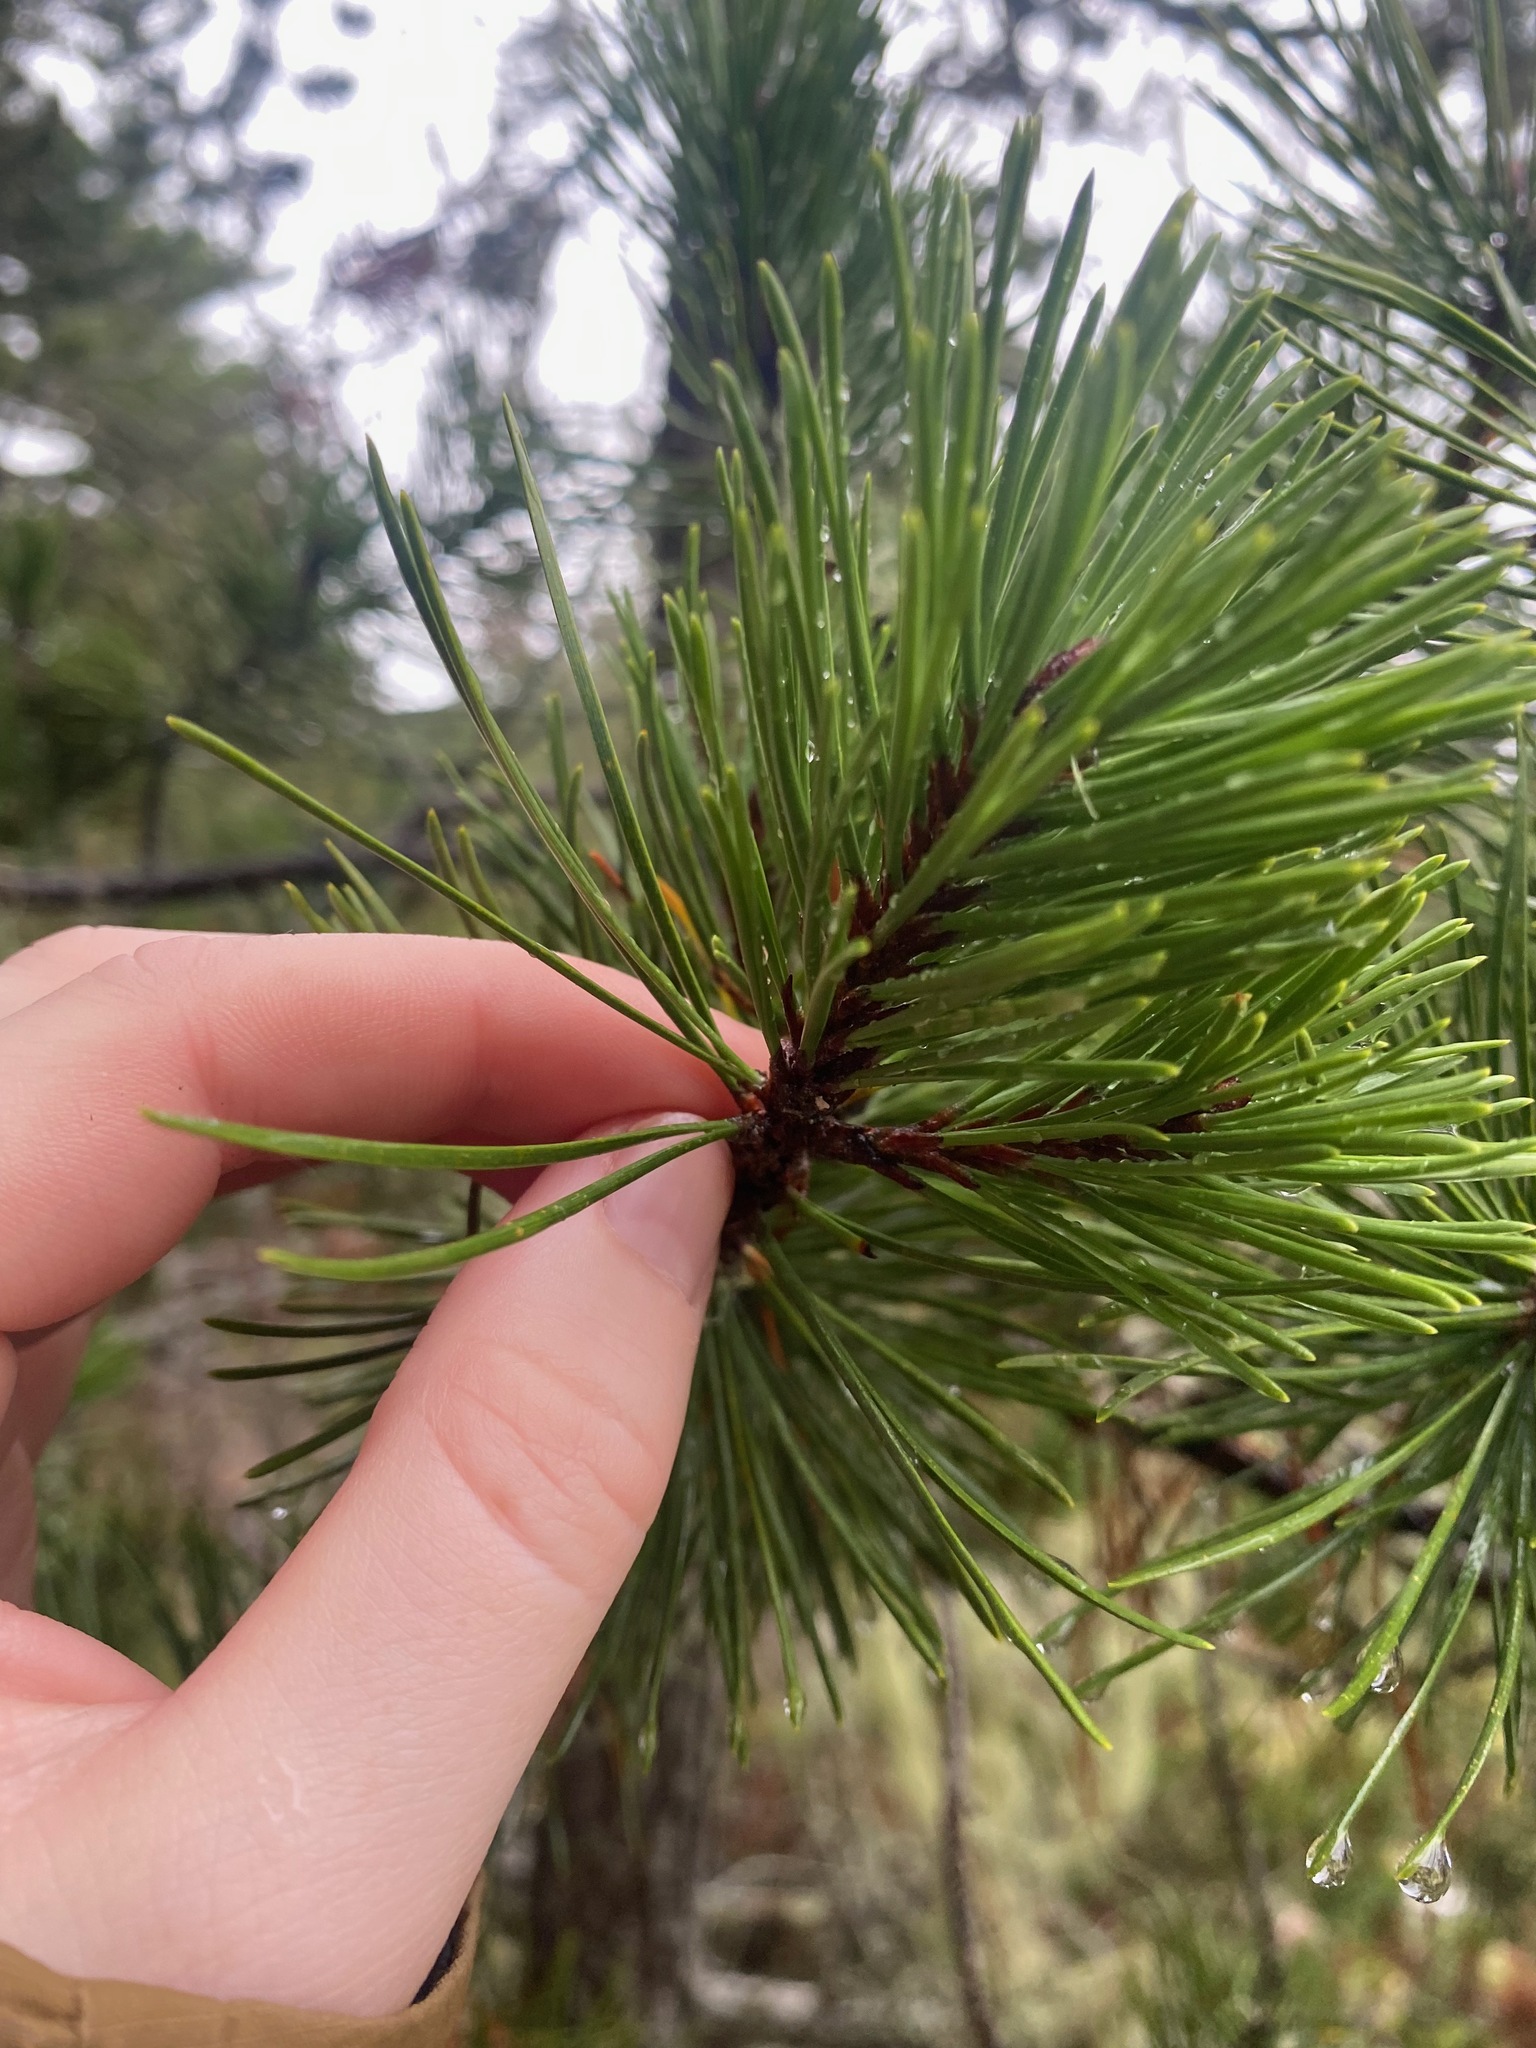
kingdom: Plantae
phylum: Tracheophyta
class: Pinopsida
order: Pinales
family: Pinaceae
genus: Pinus
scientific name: Pinus contorta
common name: Lodgepole pine
